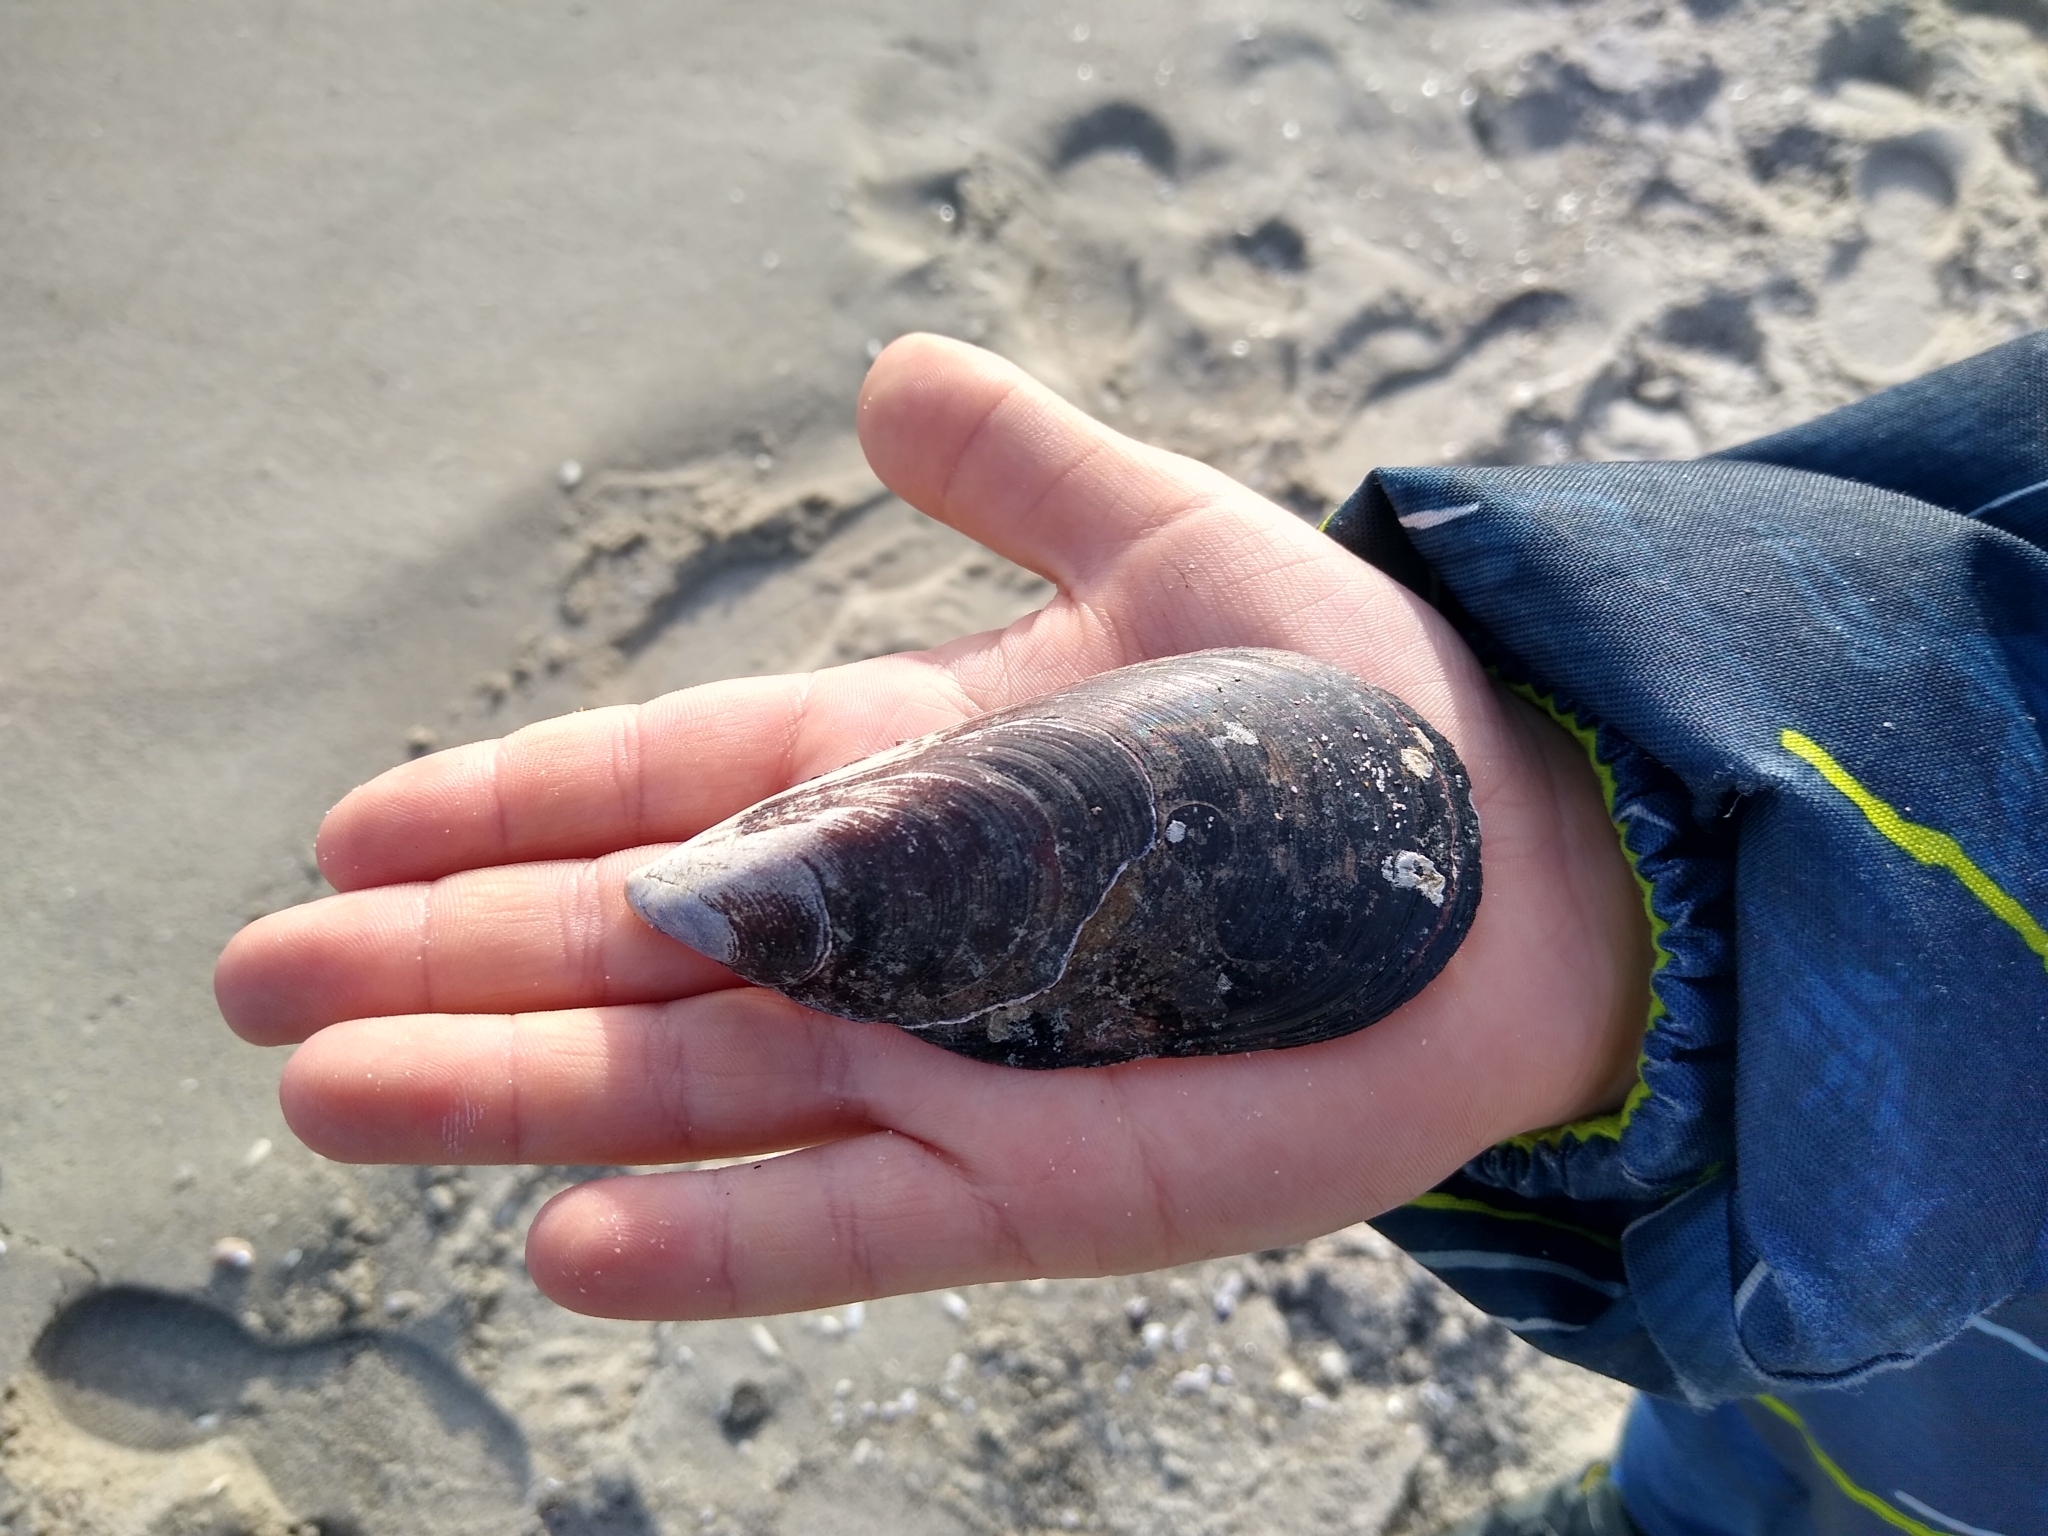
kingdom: Animalia
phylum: Mollusca
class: Bivalvia
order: Mytilida
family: Mytilidae
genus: Mytilus
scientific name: Mytilus galloprovincialis
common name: Mediterranean mussel
